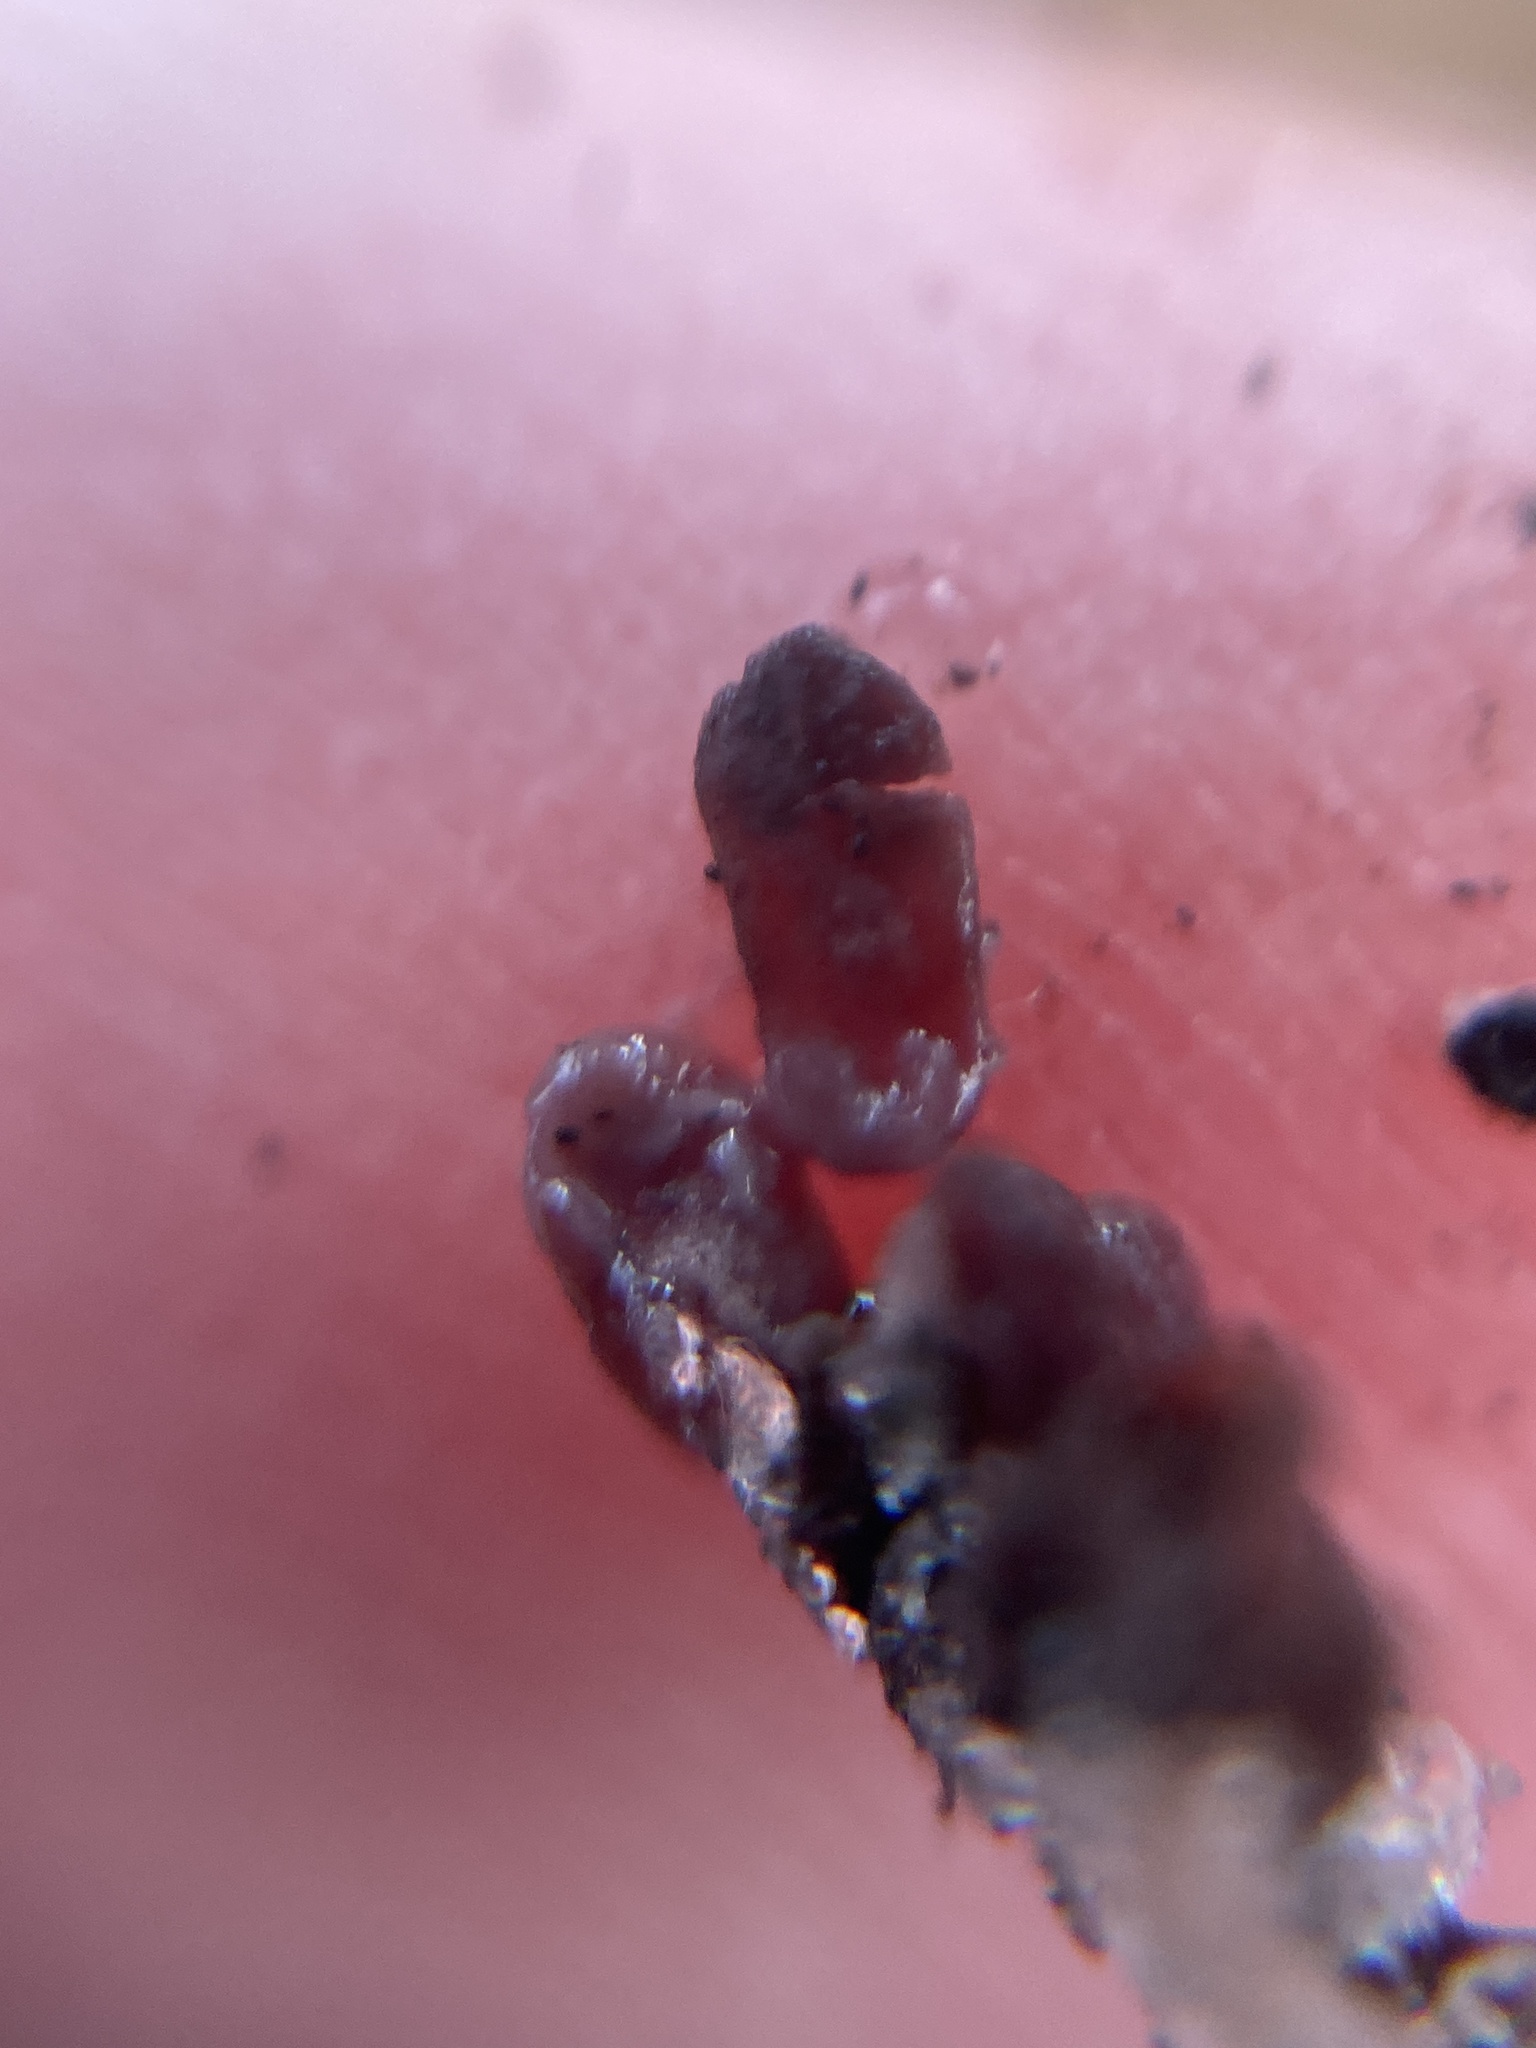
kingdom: Fungi
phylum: Ascomycota
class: Leotiomycetes
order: Helotiales
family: Gelatinodiscaceae
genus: Ascocoryne
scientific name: Ascocoryne sarcoides
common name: Purple jellydisc
